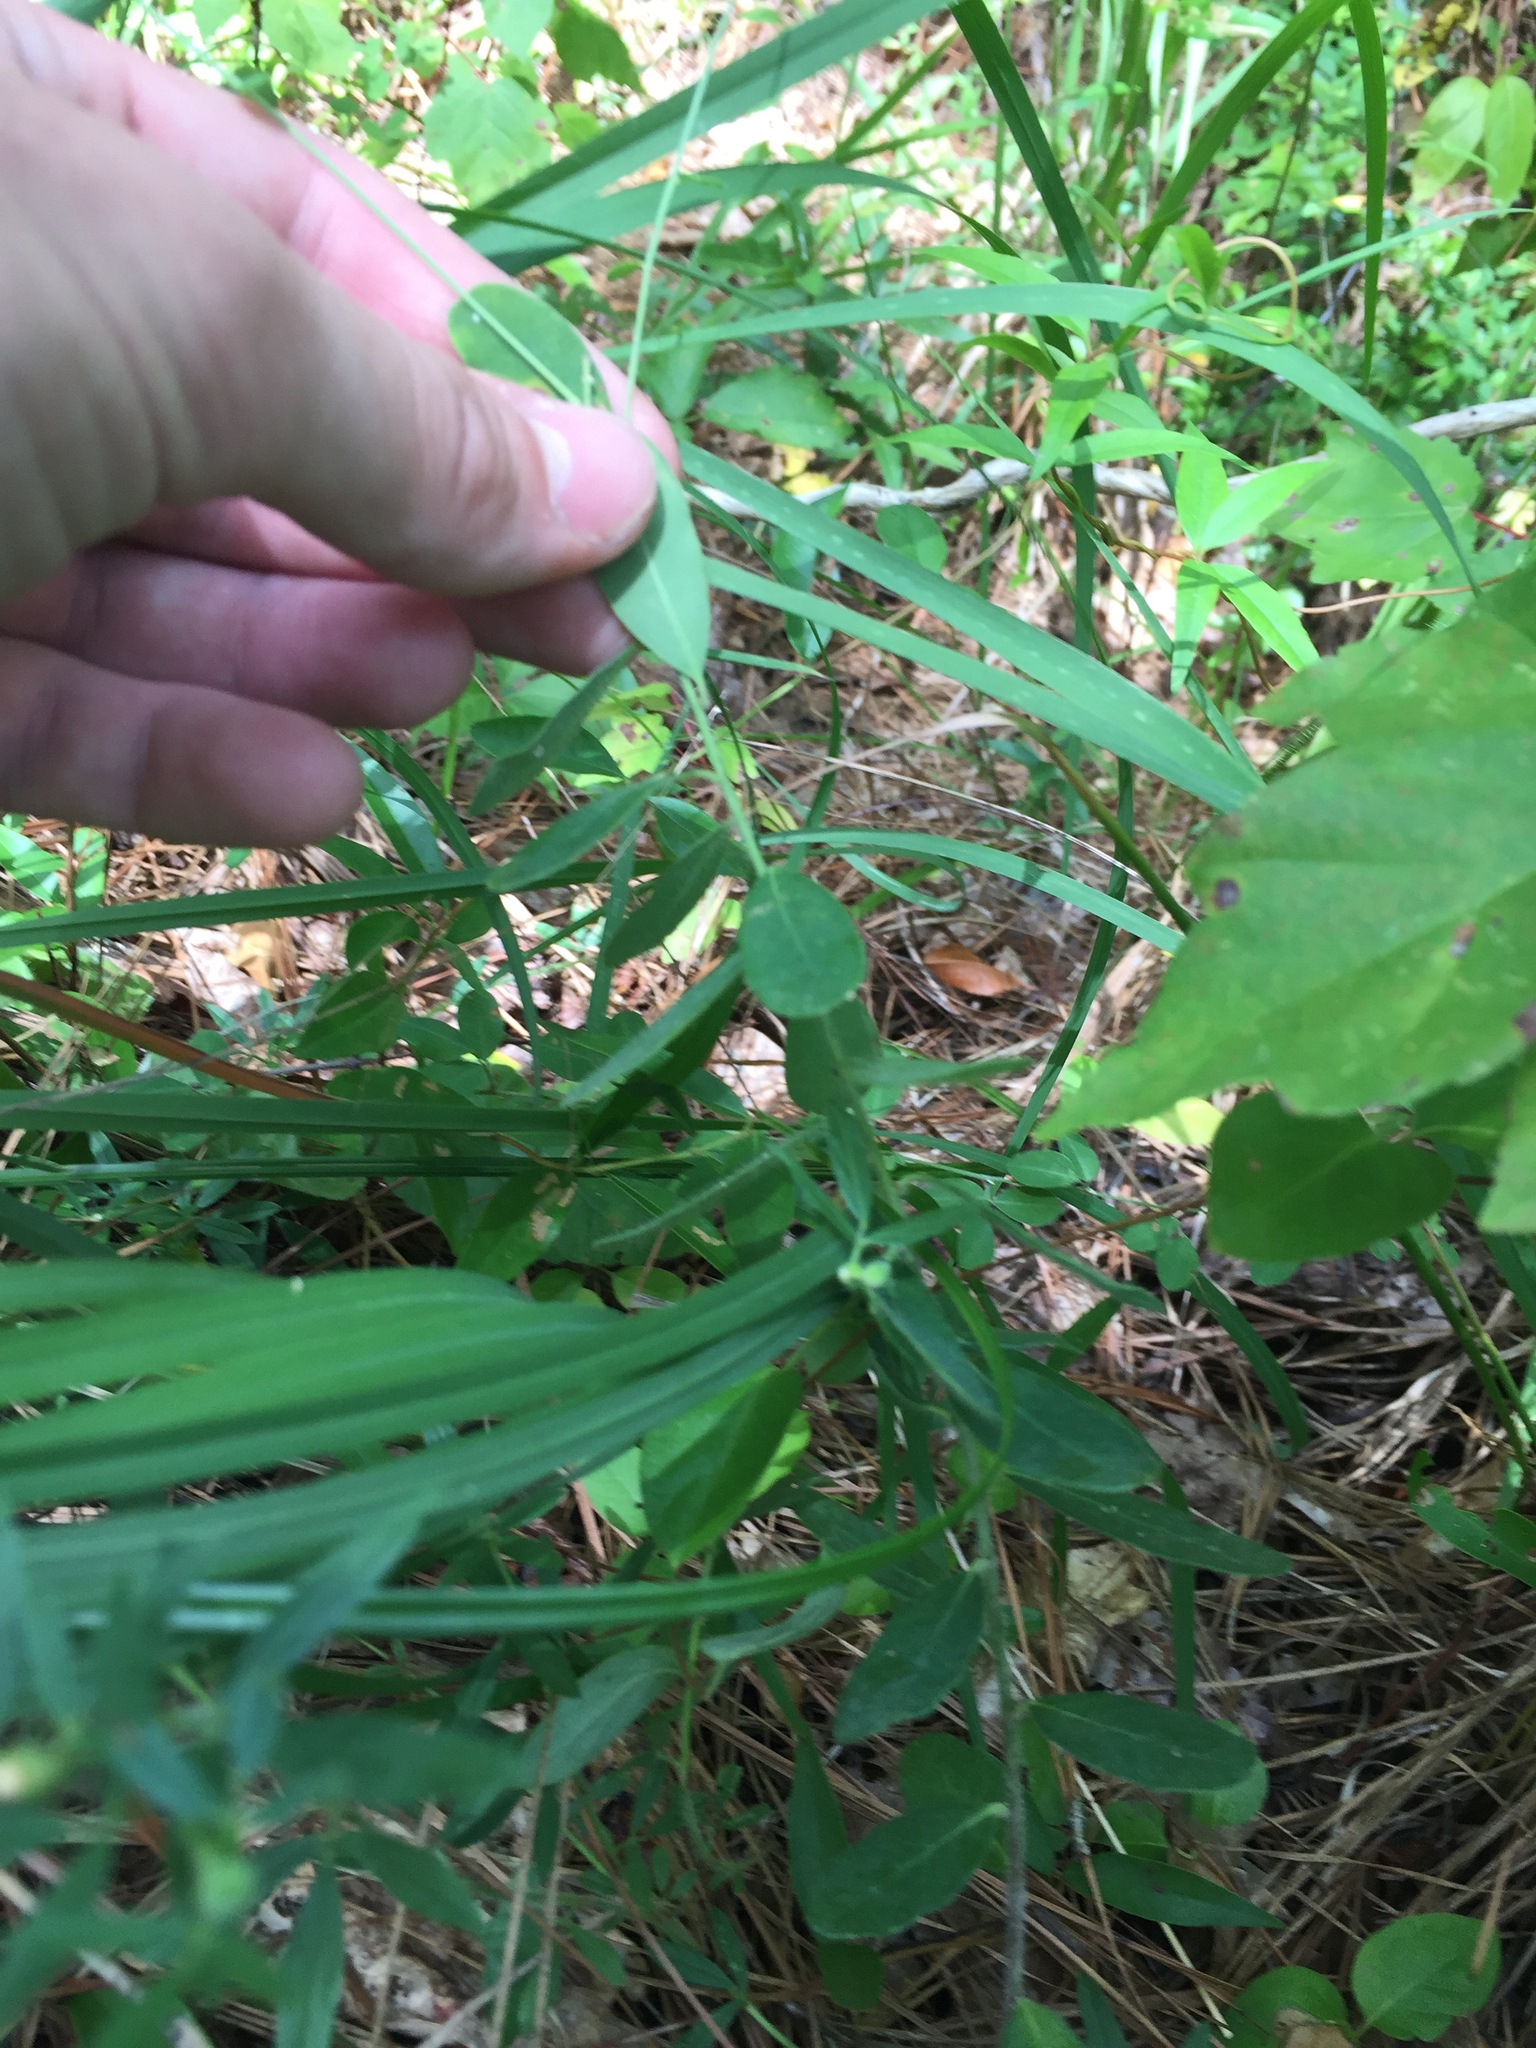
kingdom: Plantae
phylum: Tracheophyta
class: Magnoliopsida
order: Malpighiales
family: Euphorbiaceae
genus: Euphorbia
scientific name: Euphorbia pubentissima
